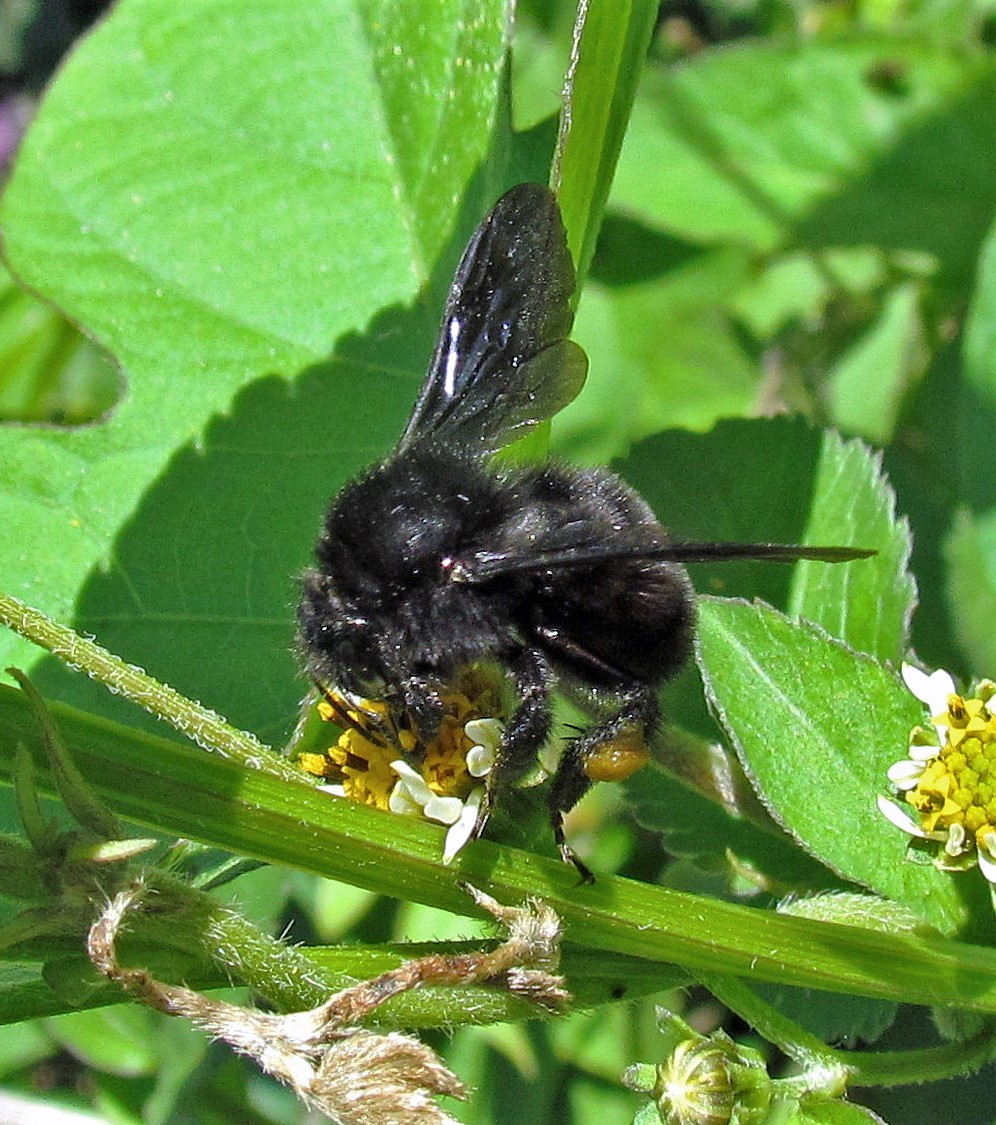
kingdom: Animalia
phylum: Arthropoda
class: Insecta
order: Hymenoptera
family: Apidae
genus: Bombus
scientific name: Bombus pauloensis
